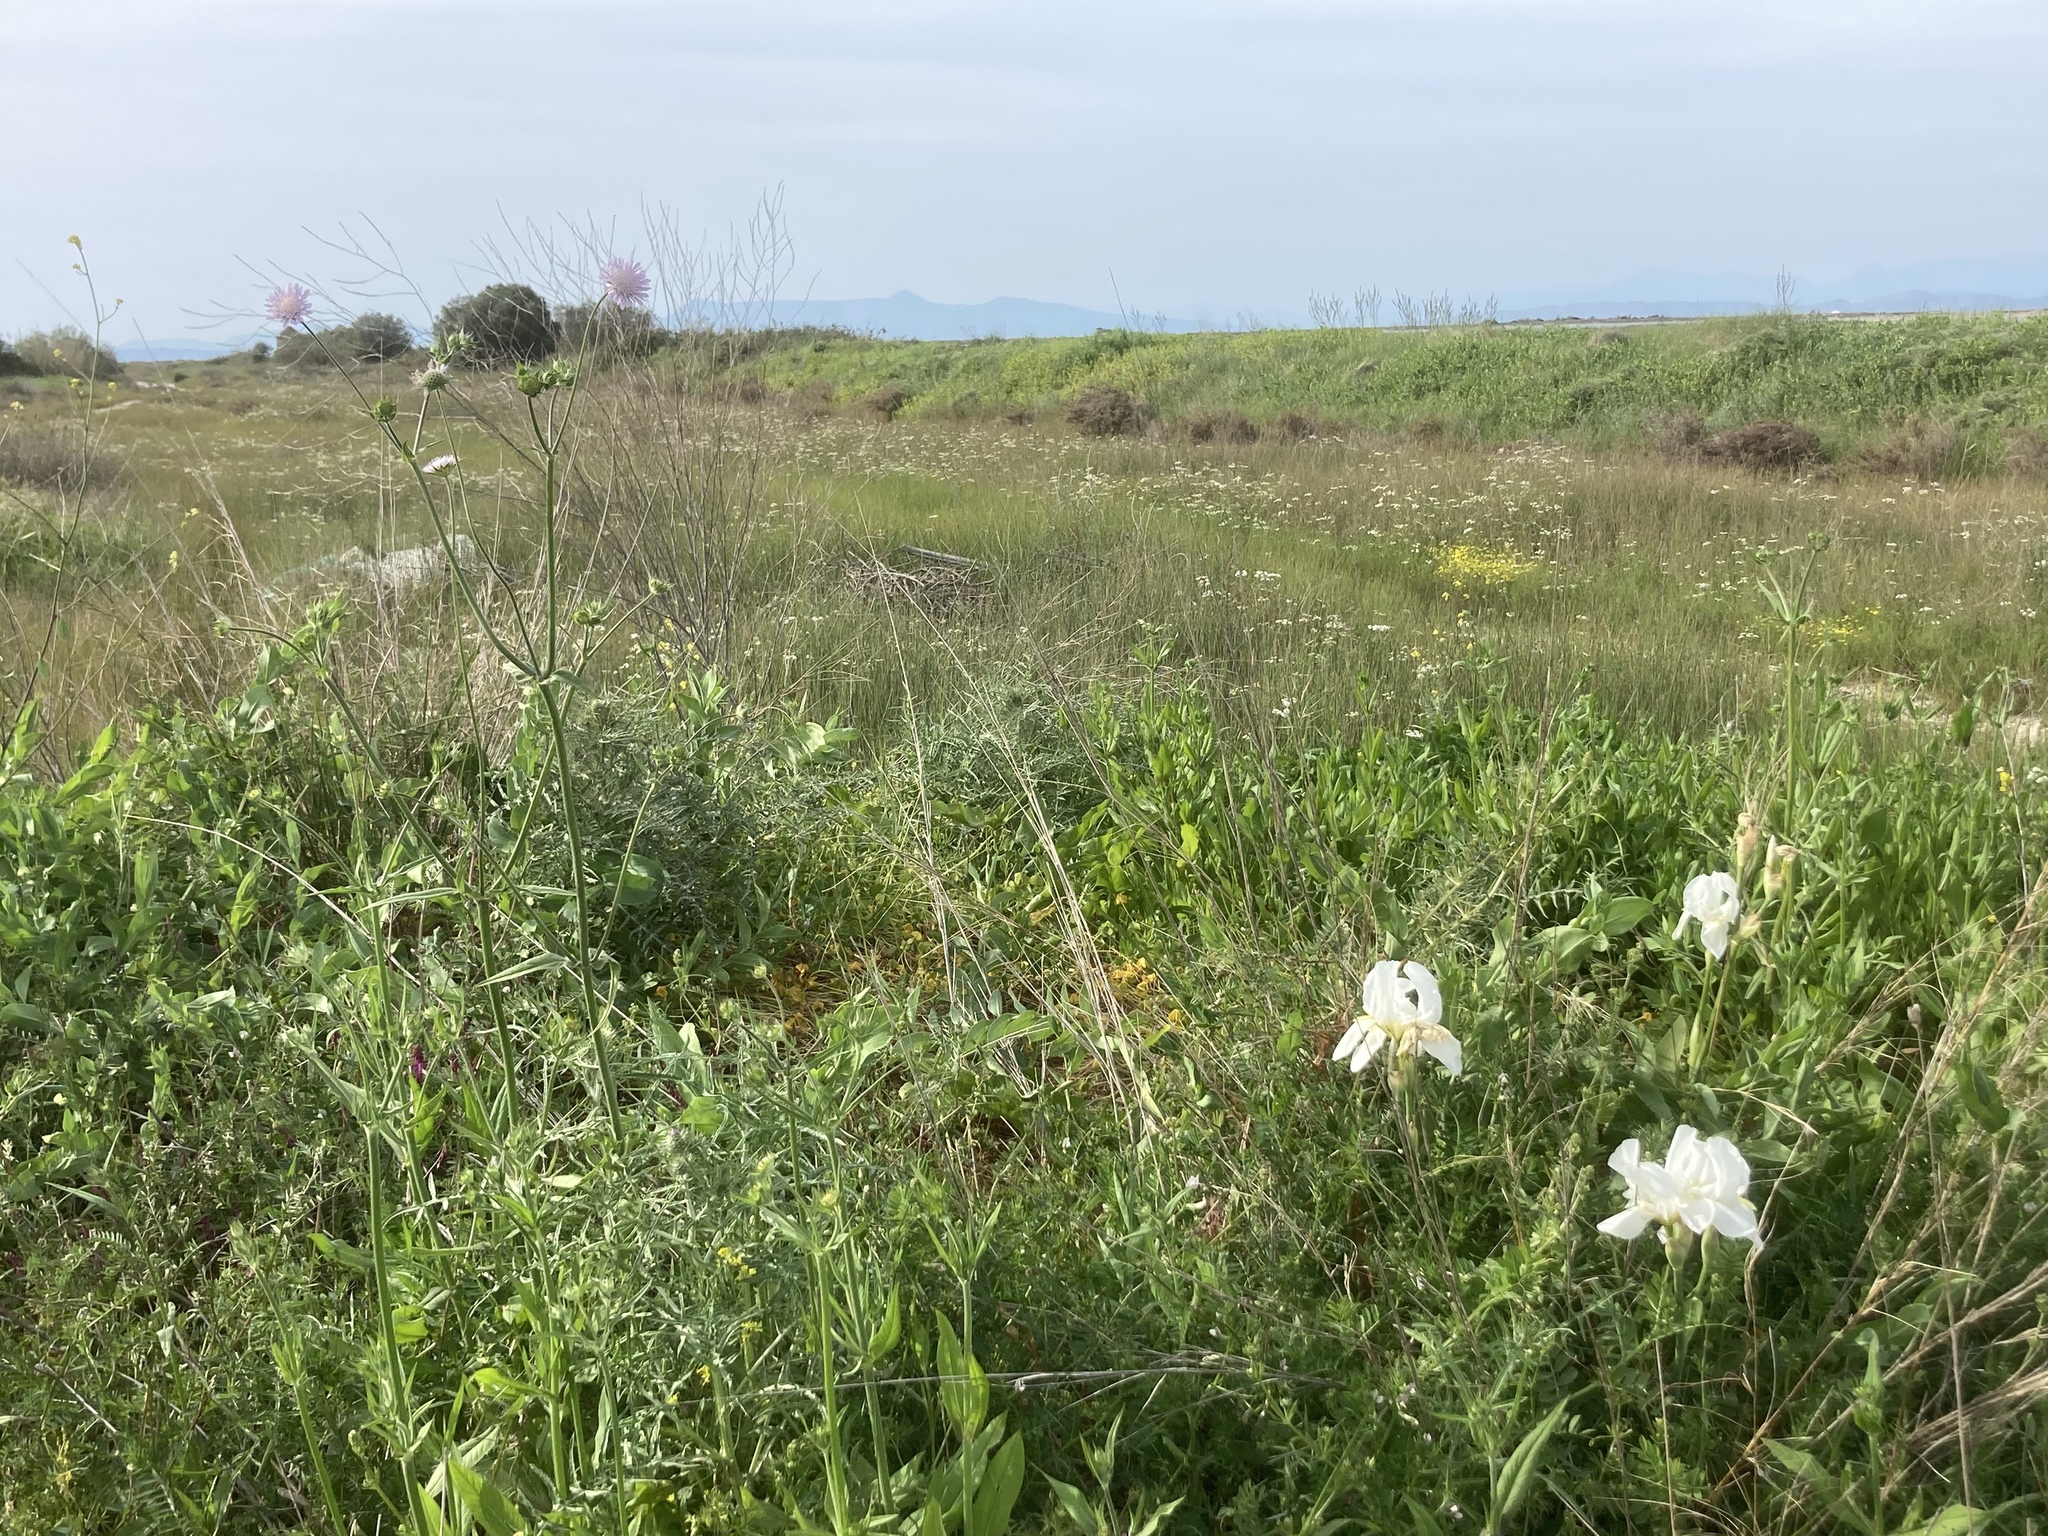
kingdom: Plantae
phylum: Tracheophyta
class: Liliopsida
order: Asparagales
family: Iridaceae
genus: Iris
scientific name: Iris florentina
